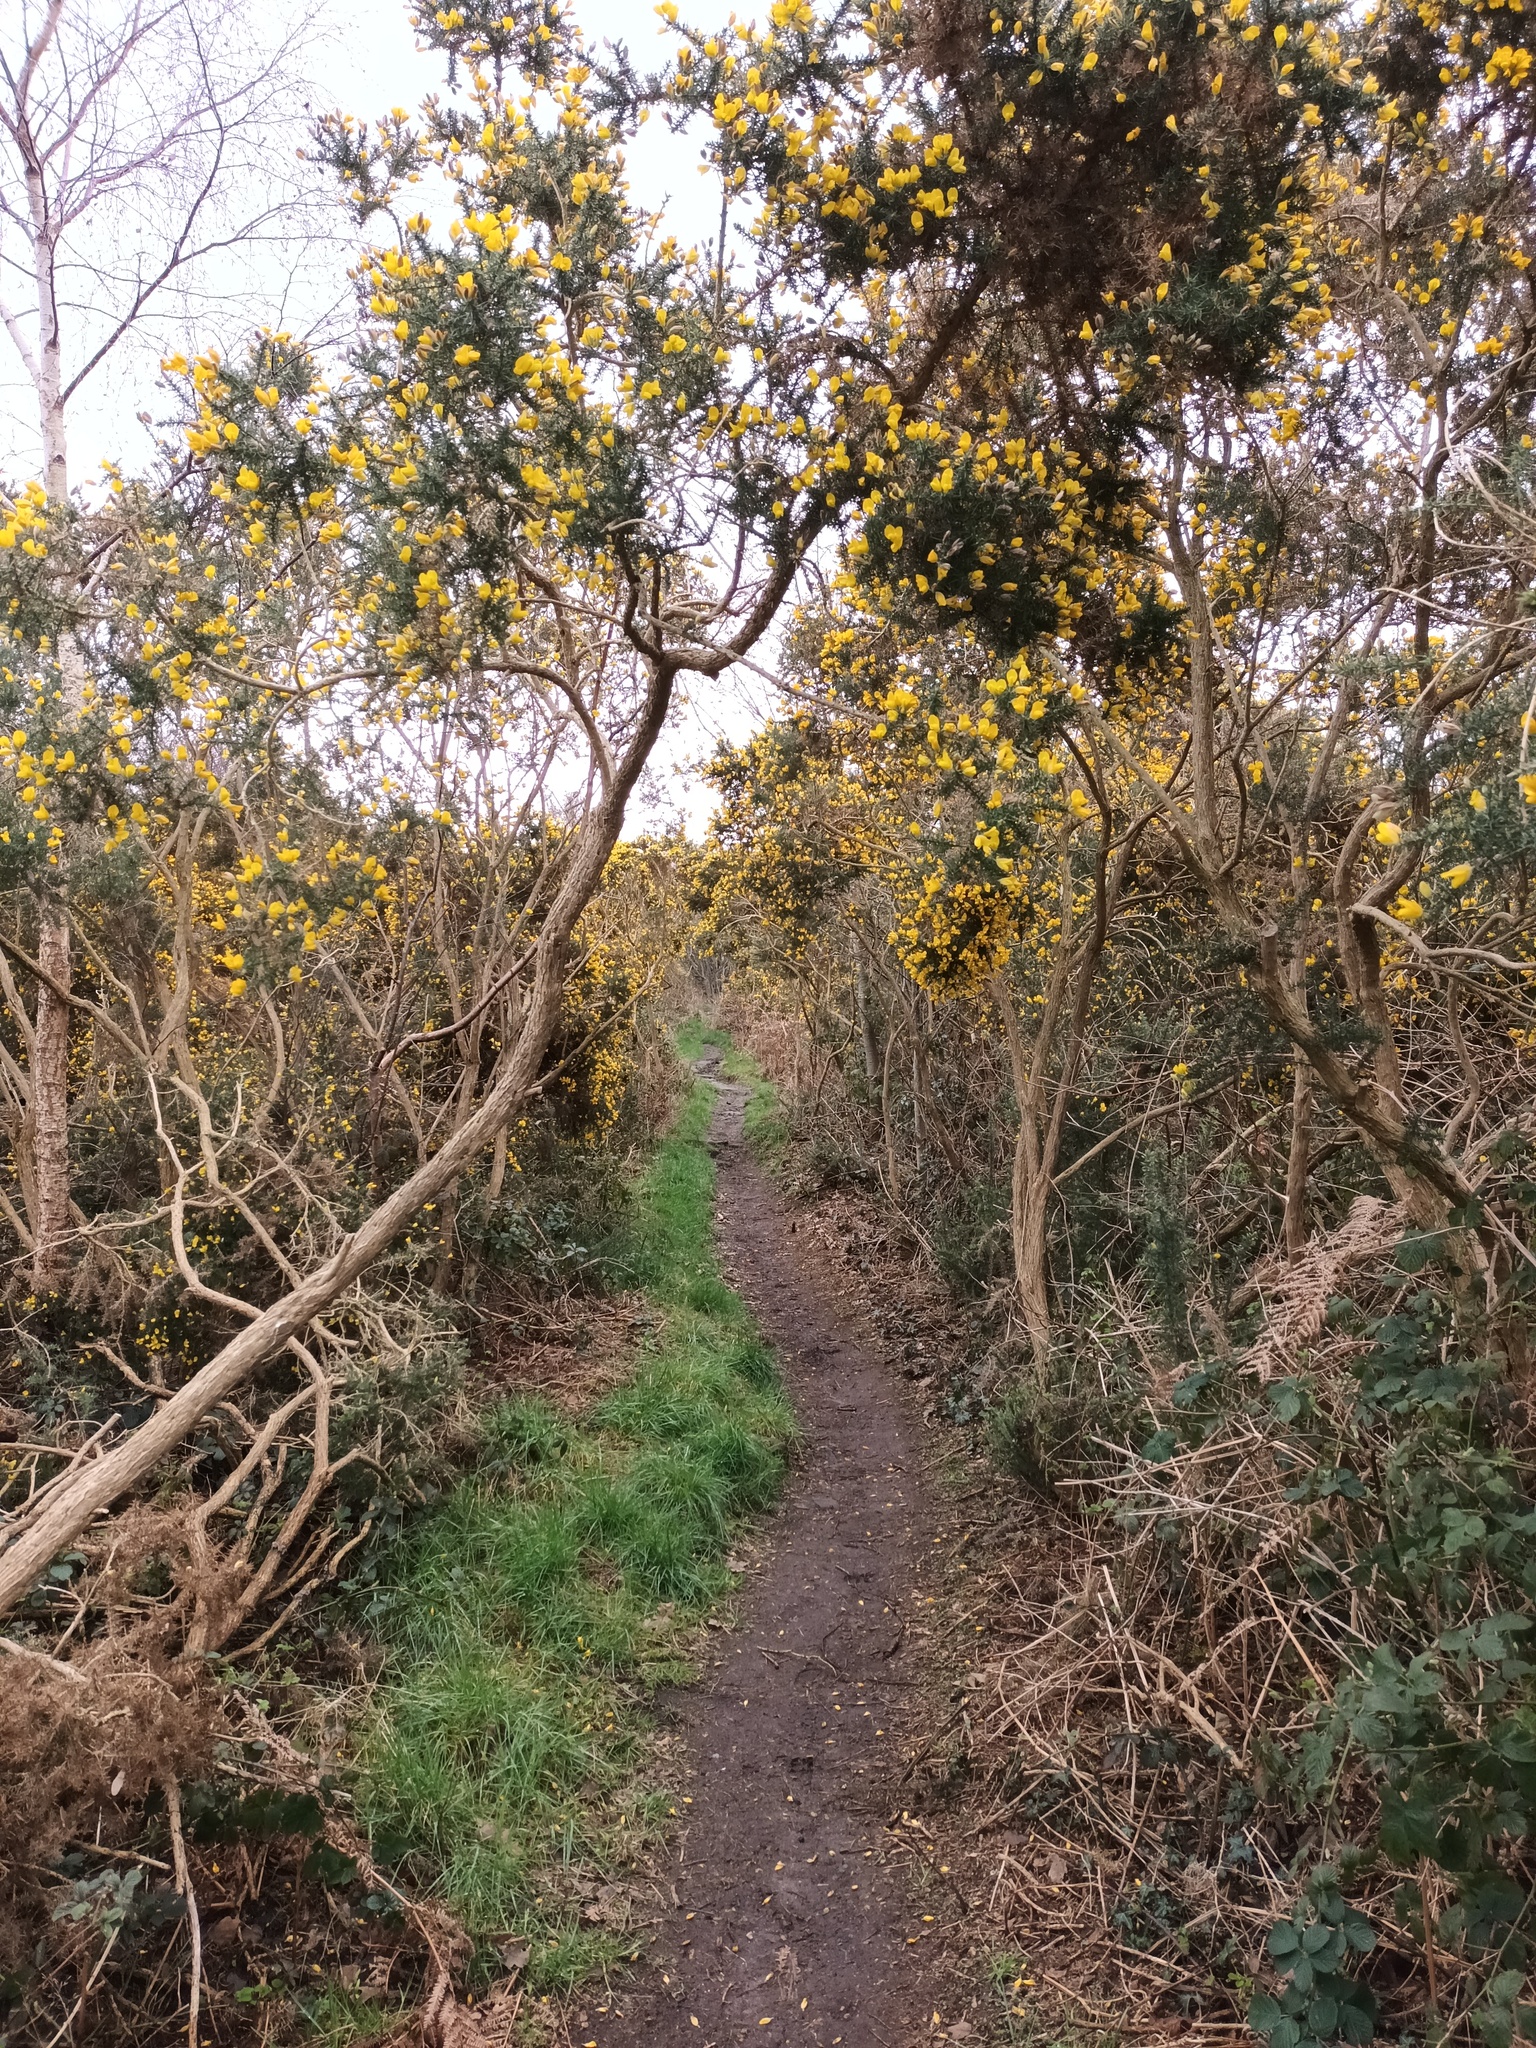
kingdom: Plantae
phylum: Tracheophyta
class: Magnoliopsida
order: Fabales
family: Fabaceae
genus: Ulex
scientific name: Ulex europaeus
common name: Common gorse
